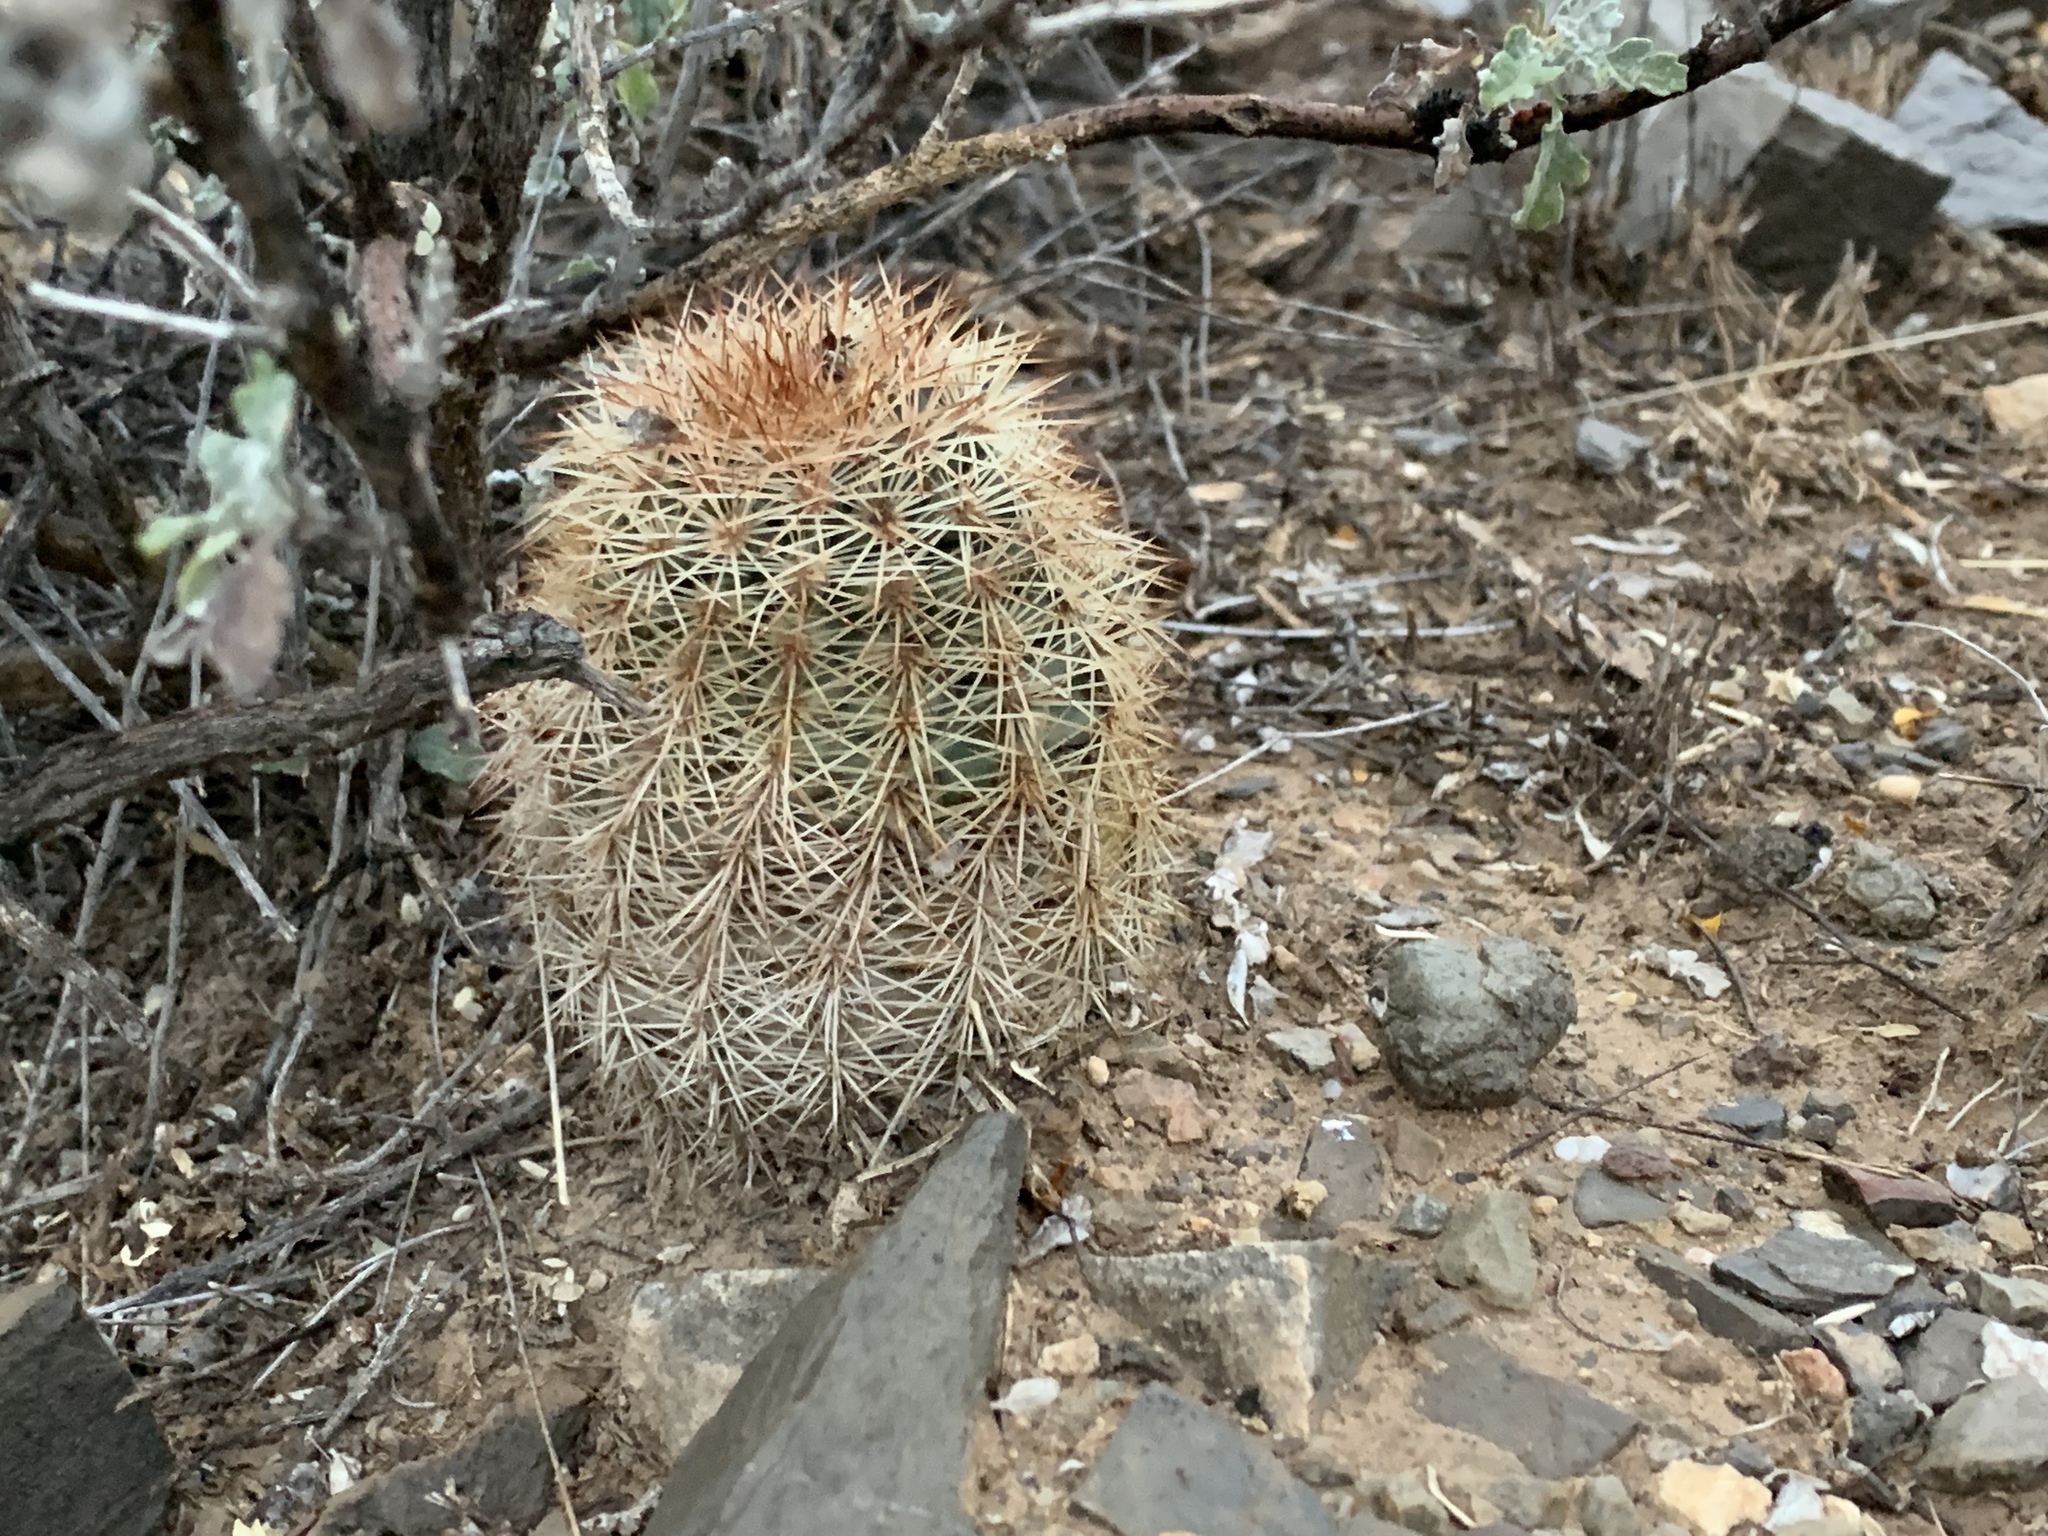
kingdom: Plantae
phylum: Tracheophyta
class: Magnoliopsida
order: Caryophyllales
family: Cactaceae
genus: Echinocereus
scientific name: Echinocereus dasyacanthus
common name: Spiny hedgehog cactus
